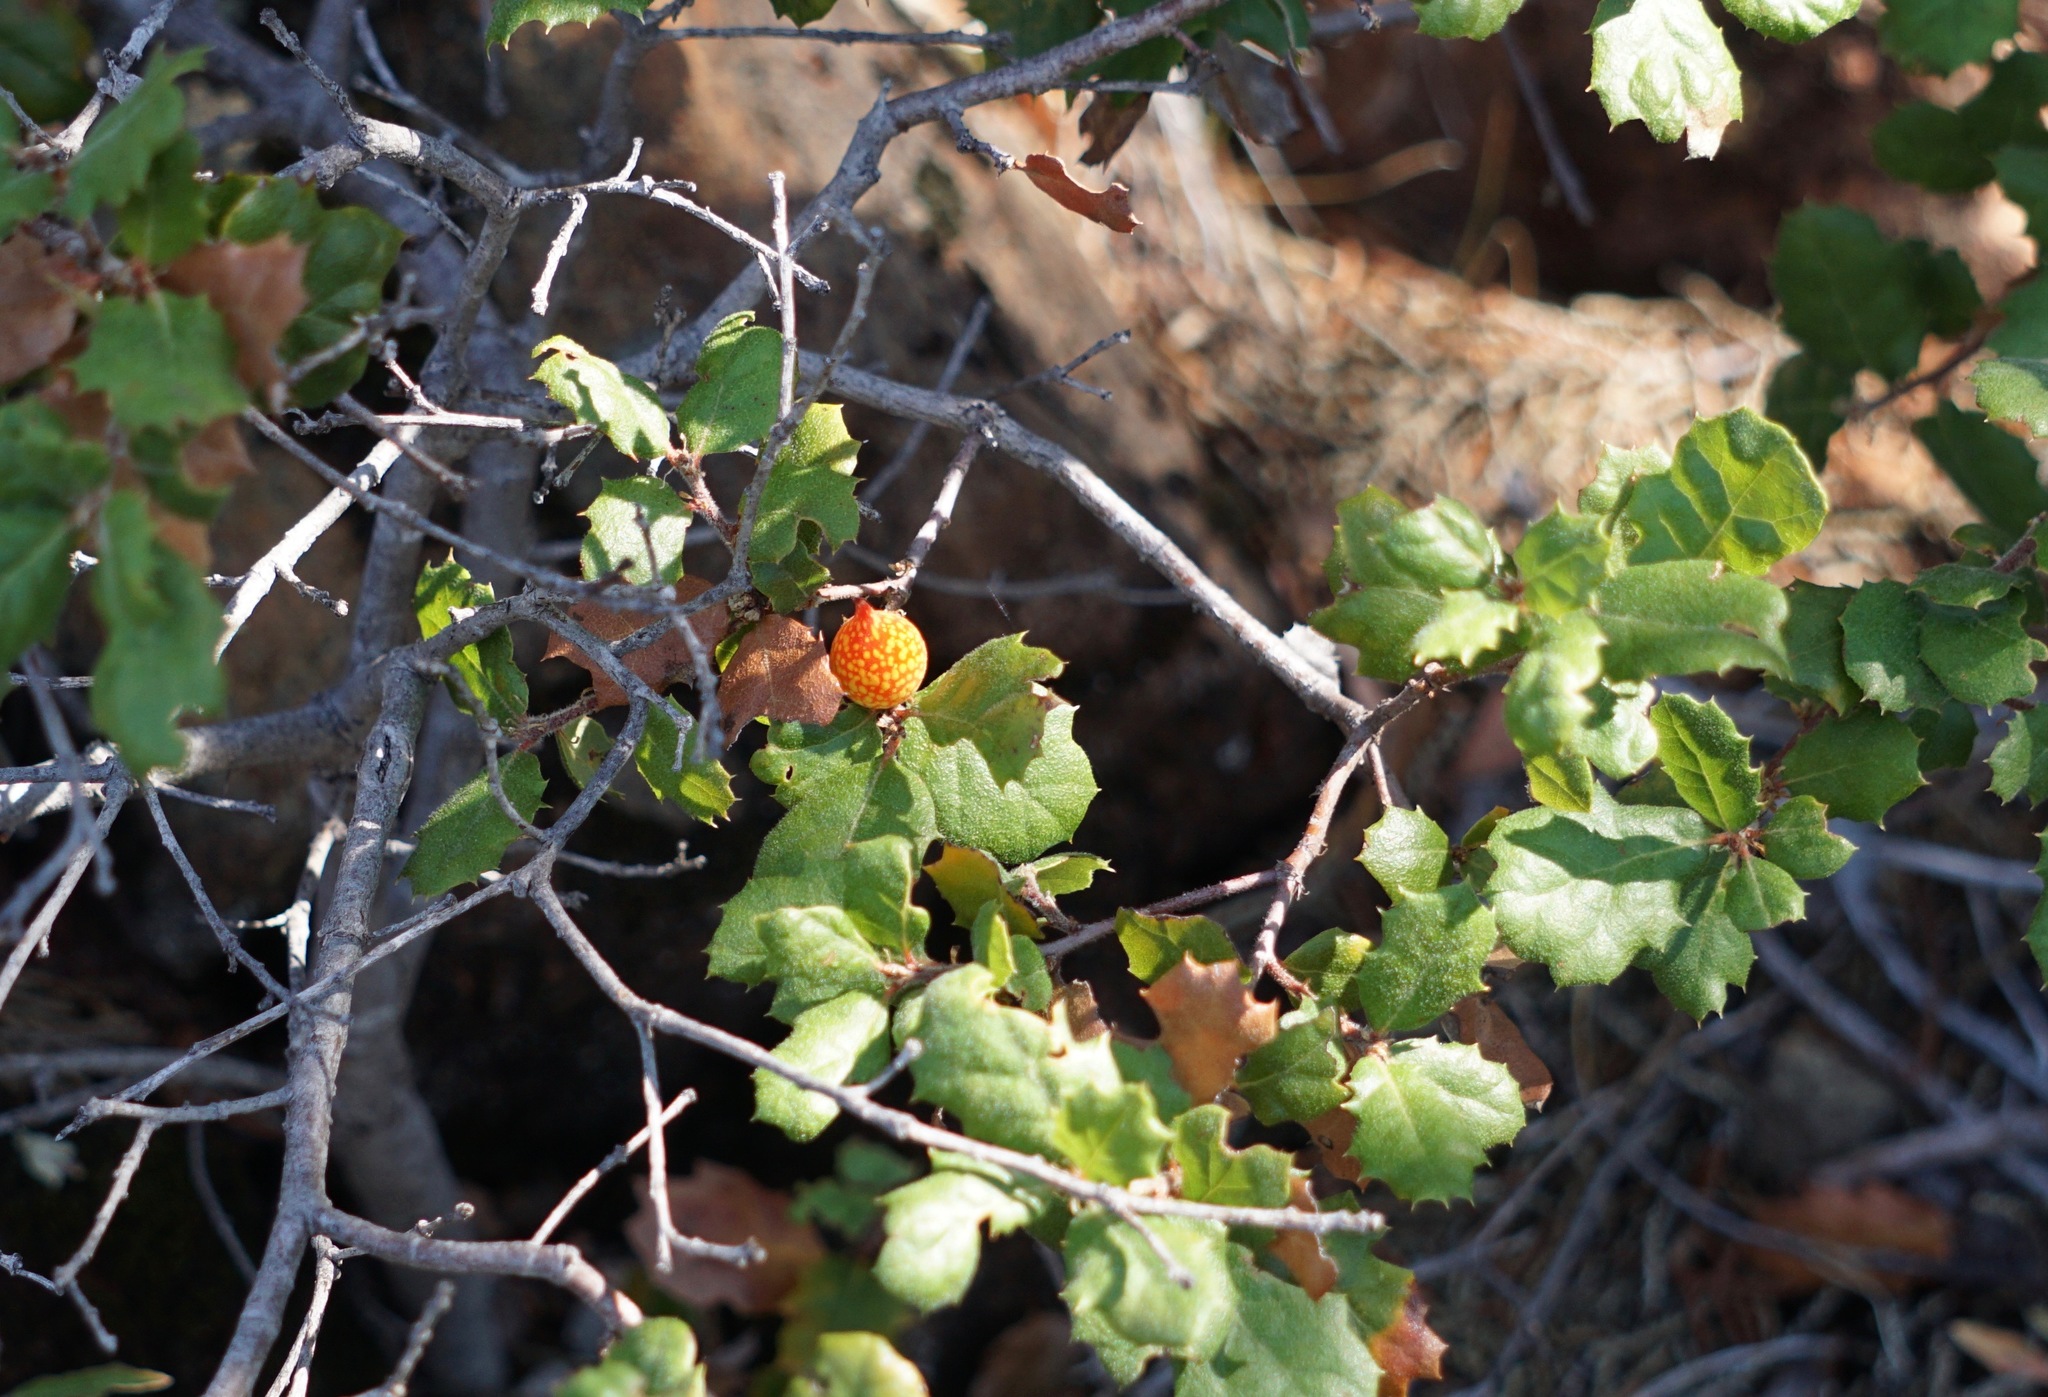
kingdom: Animalia
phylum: Arthropoda
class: Insecta
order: Hymenoptera
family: Cynipidae
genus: Burnettweldia
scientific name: Burnettweldia
